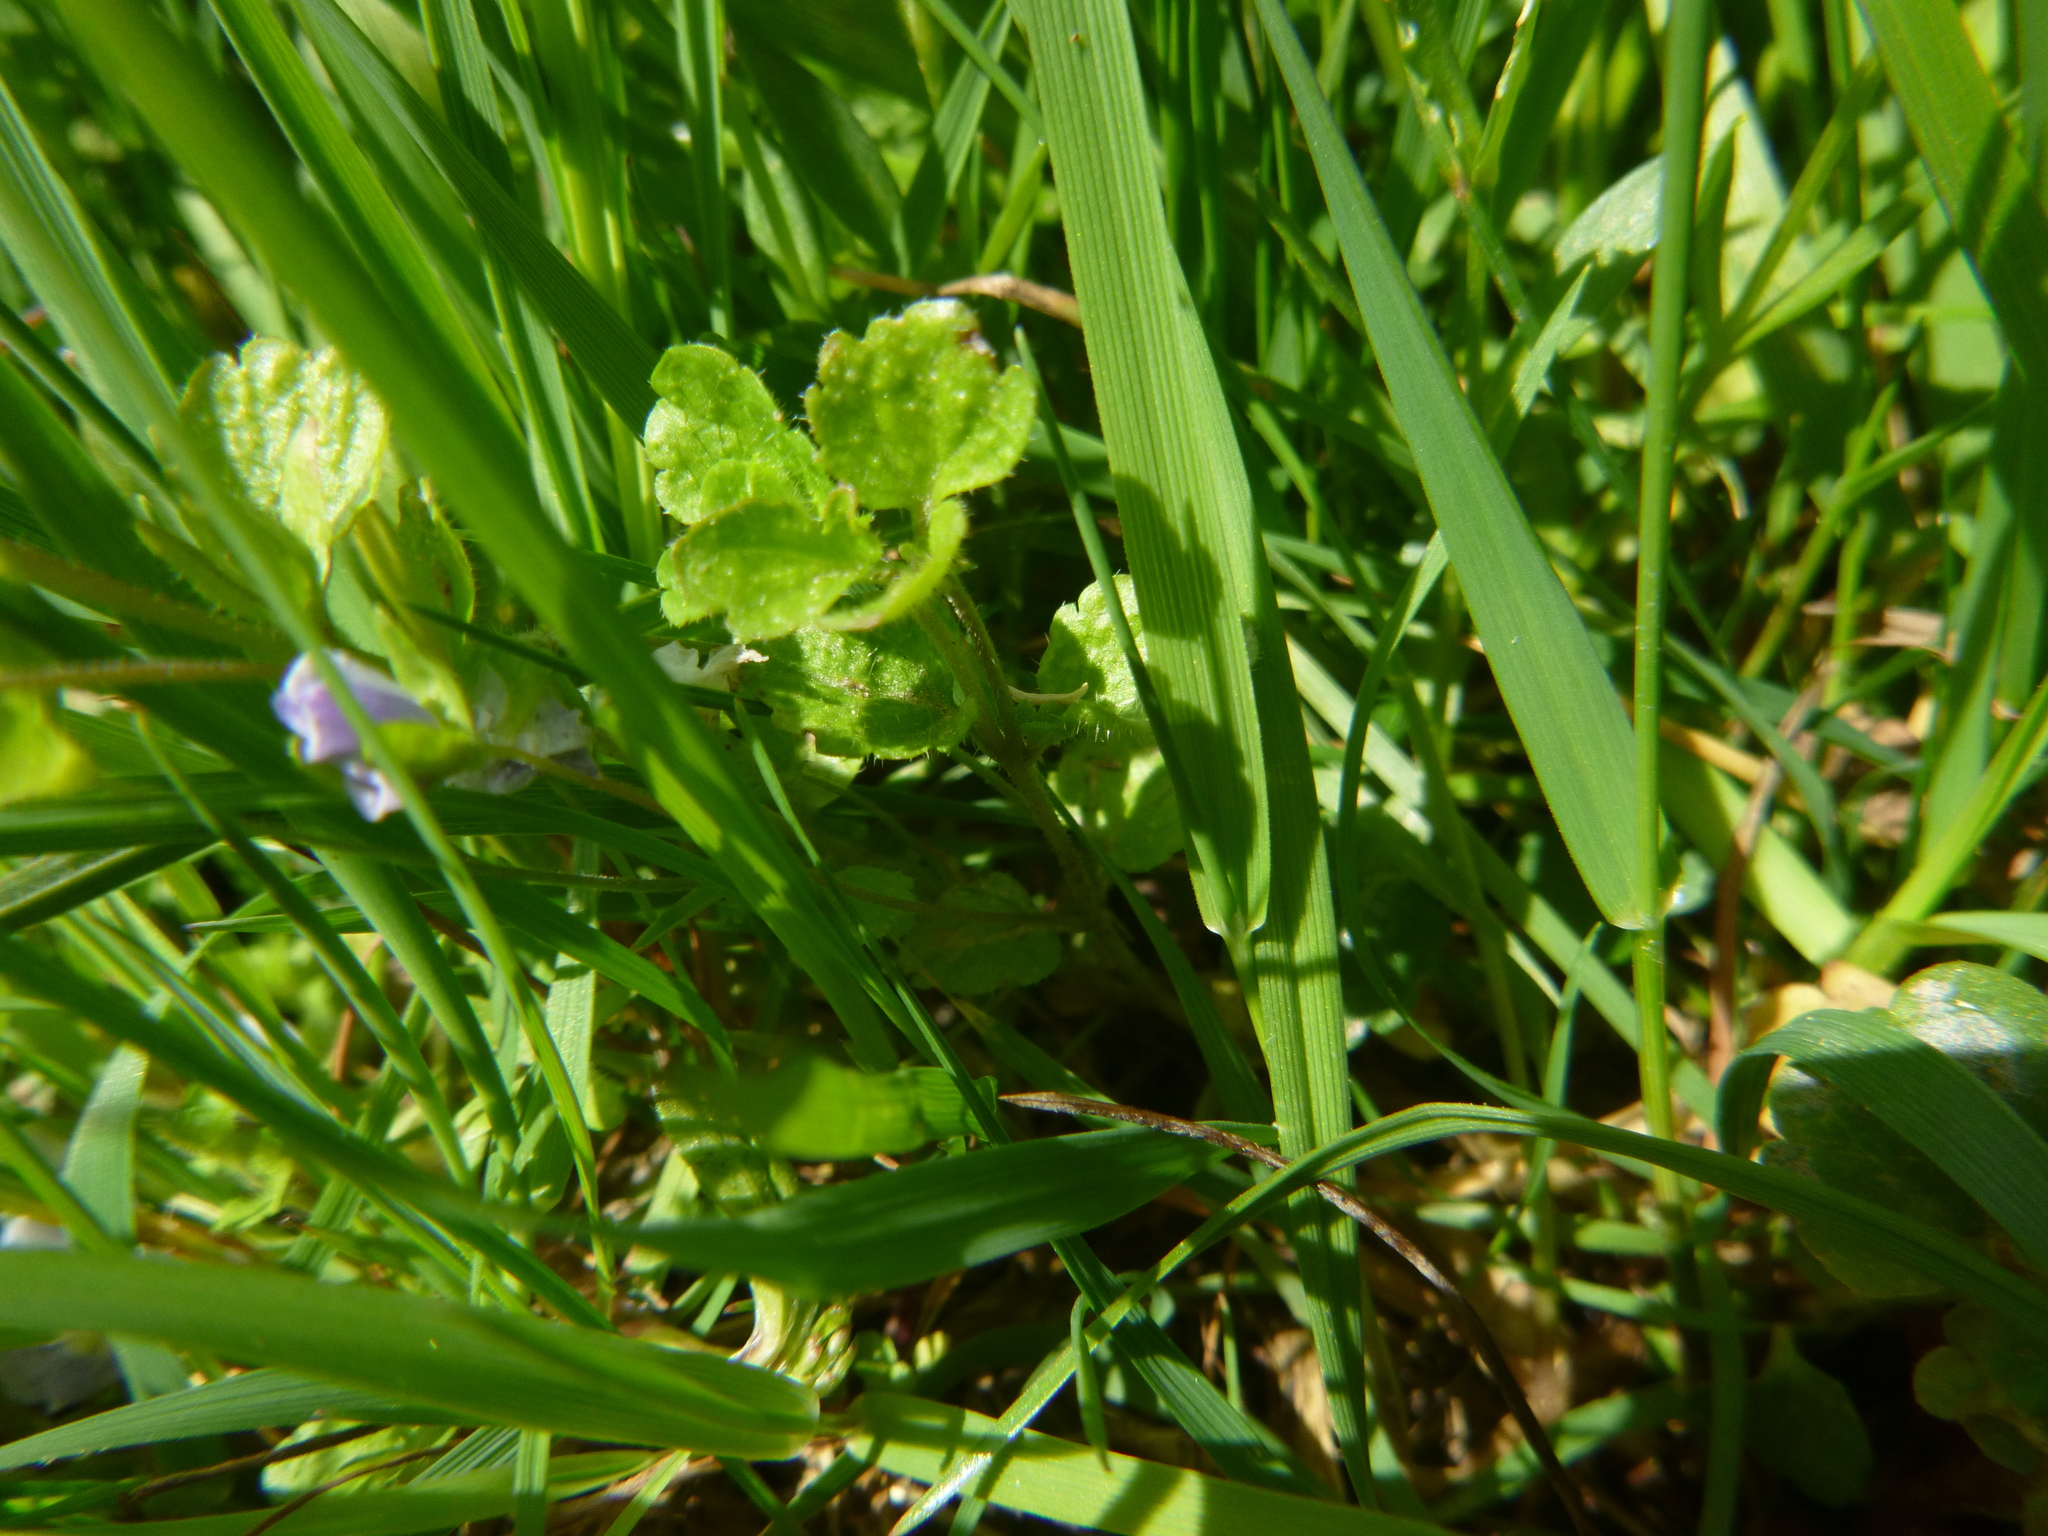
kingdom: Plantae
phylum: Tracheophyta
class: Magnoliopsida
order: Lamiales
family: Plantaginaceae
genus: Veronica
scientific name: Veronica filiformis
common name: Slender speedwell
